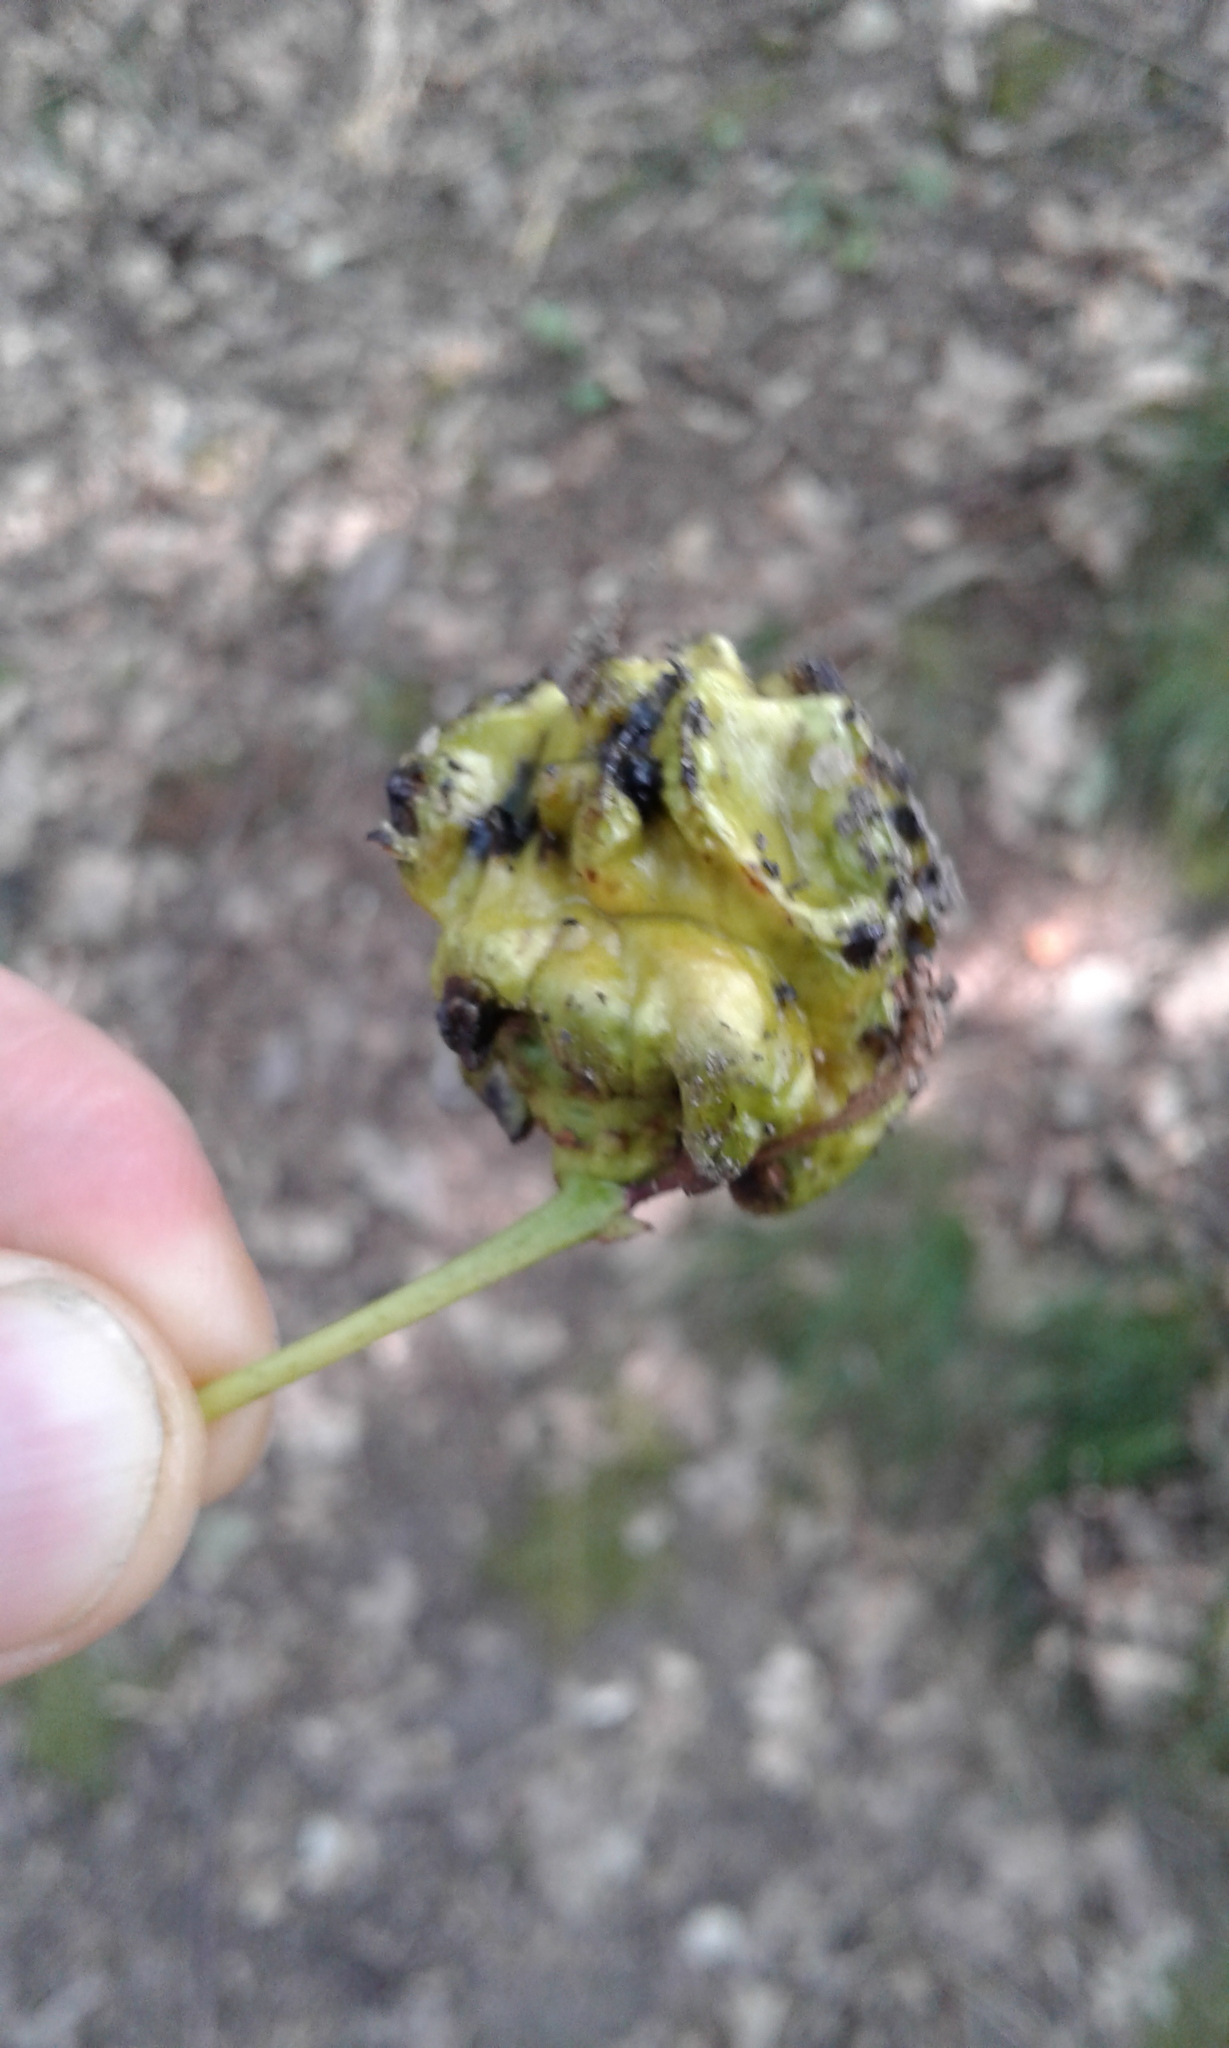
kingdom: Animalia
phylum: Arthropoda
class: Insecta
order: Hymenoptera
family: Cynipidae
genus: Andricus
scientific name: Andricus quercuscalicis
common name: Knopper gall
